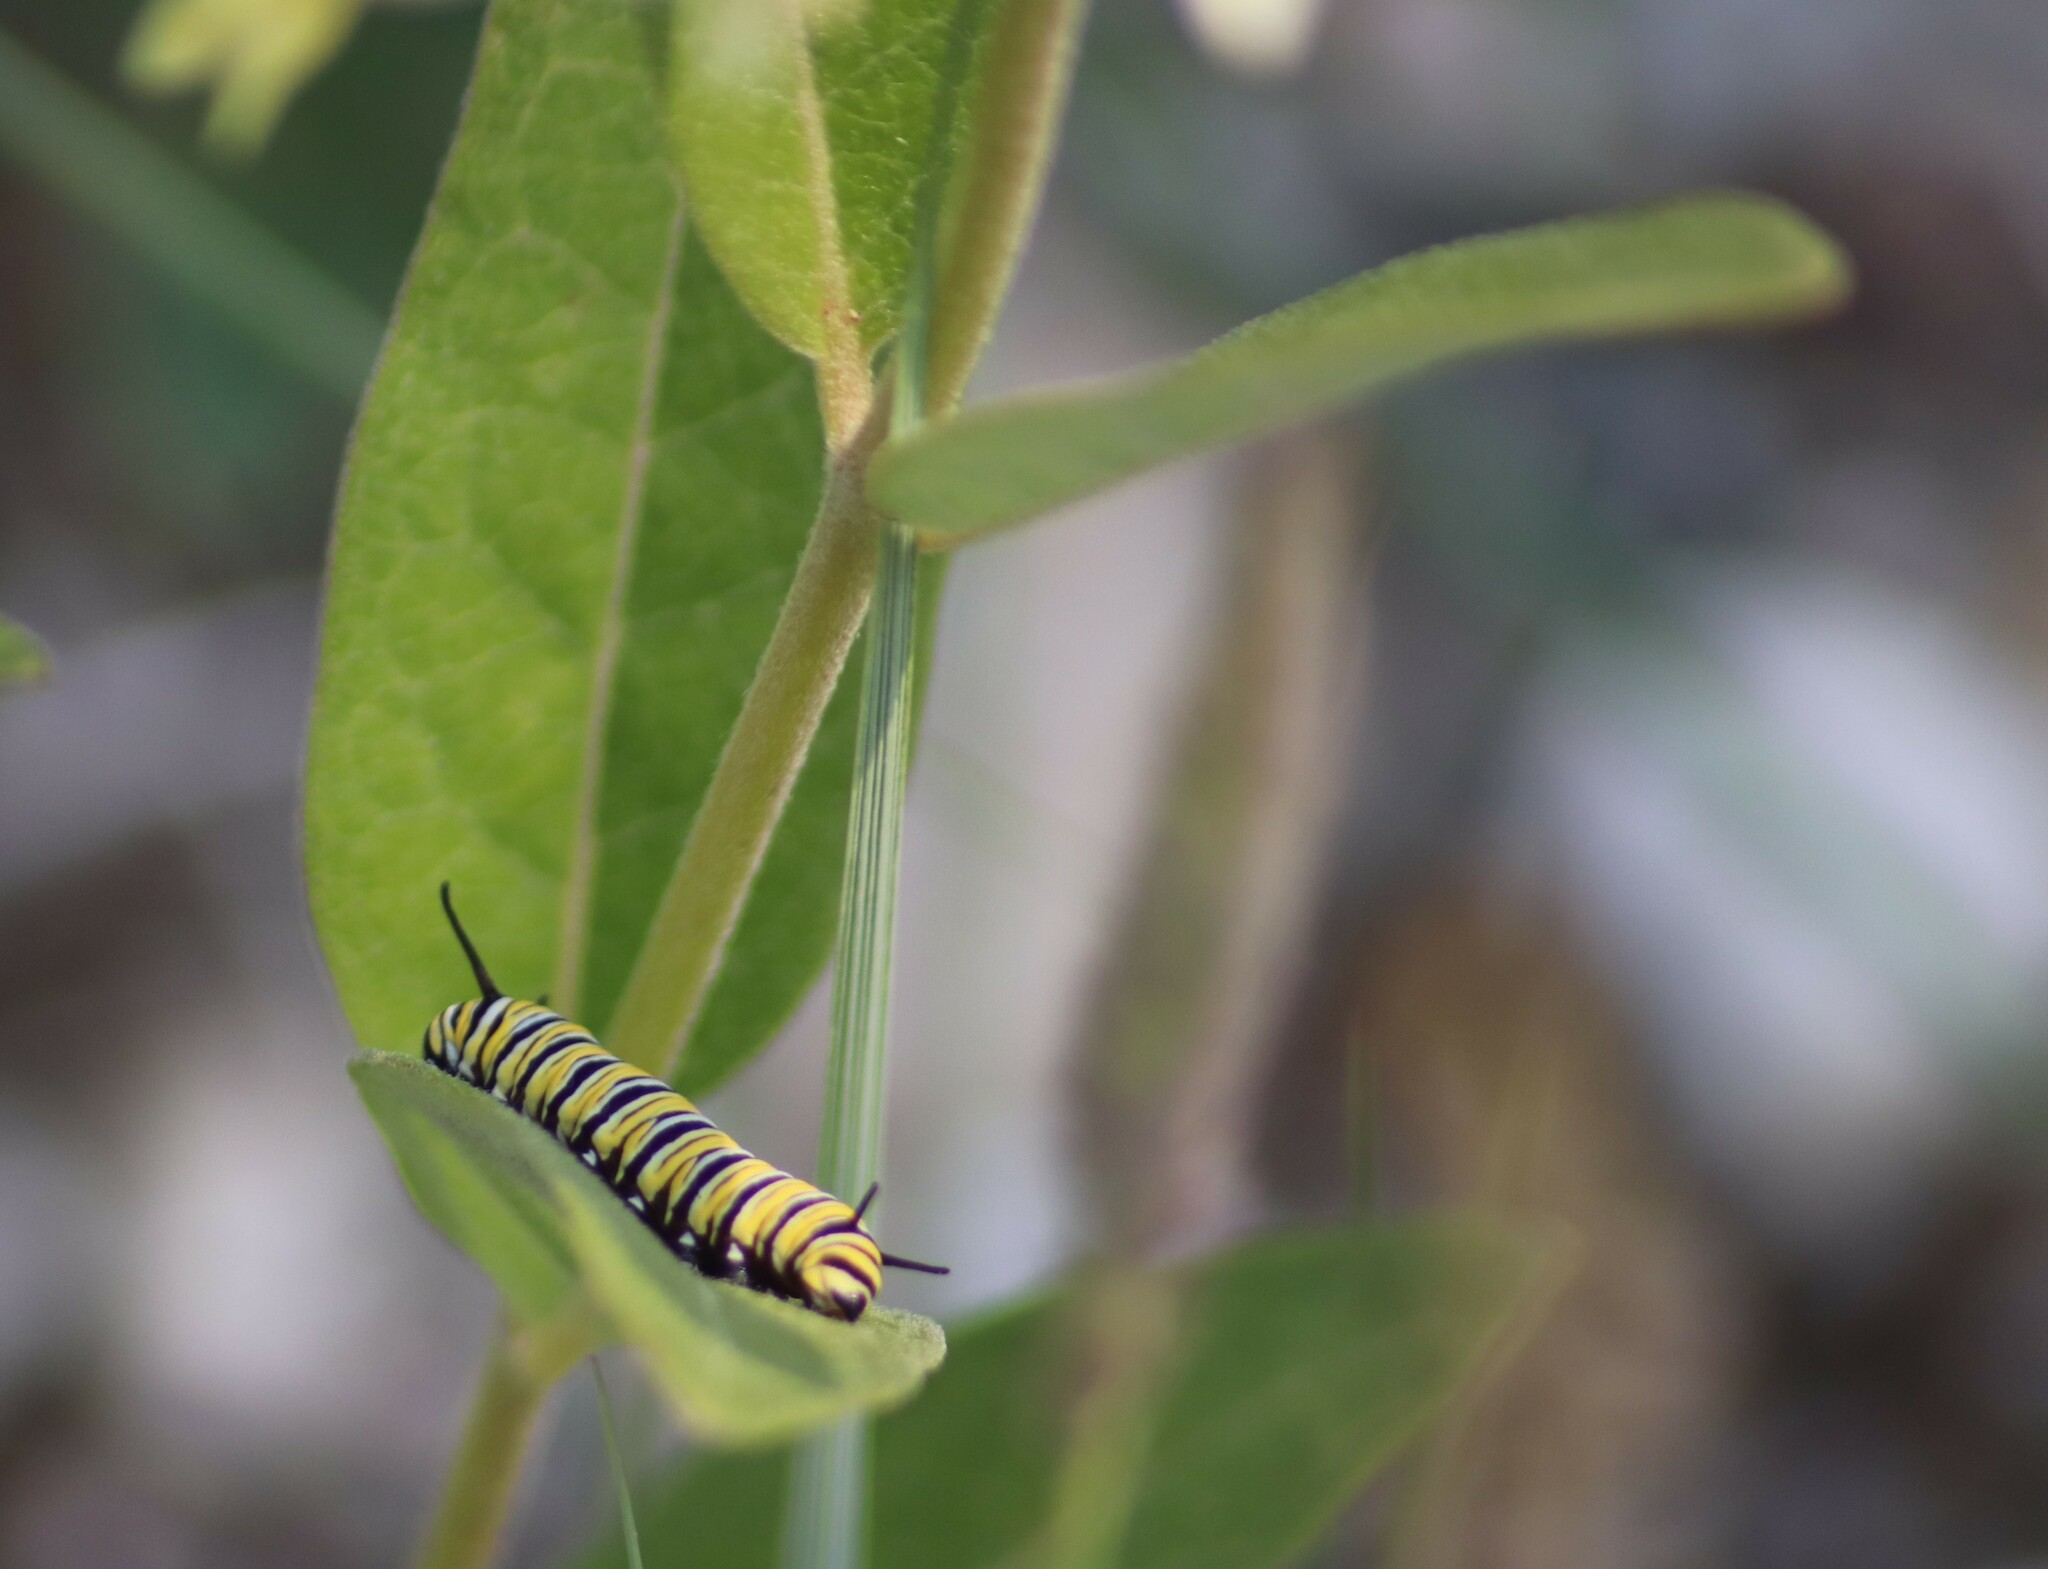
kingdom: Animalia
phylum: Arthropoda
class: Insecta
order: Lepidoptera
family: Nymphalidae
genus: Danaus
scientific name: Danaus plexippus
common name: Monarch
